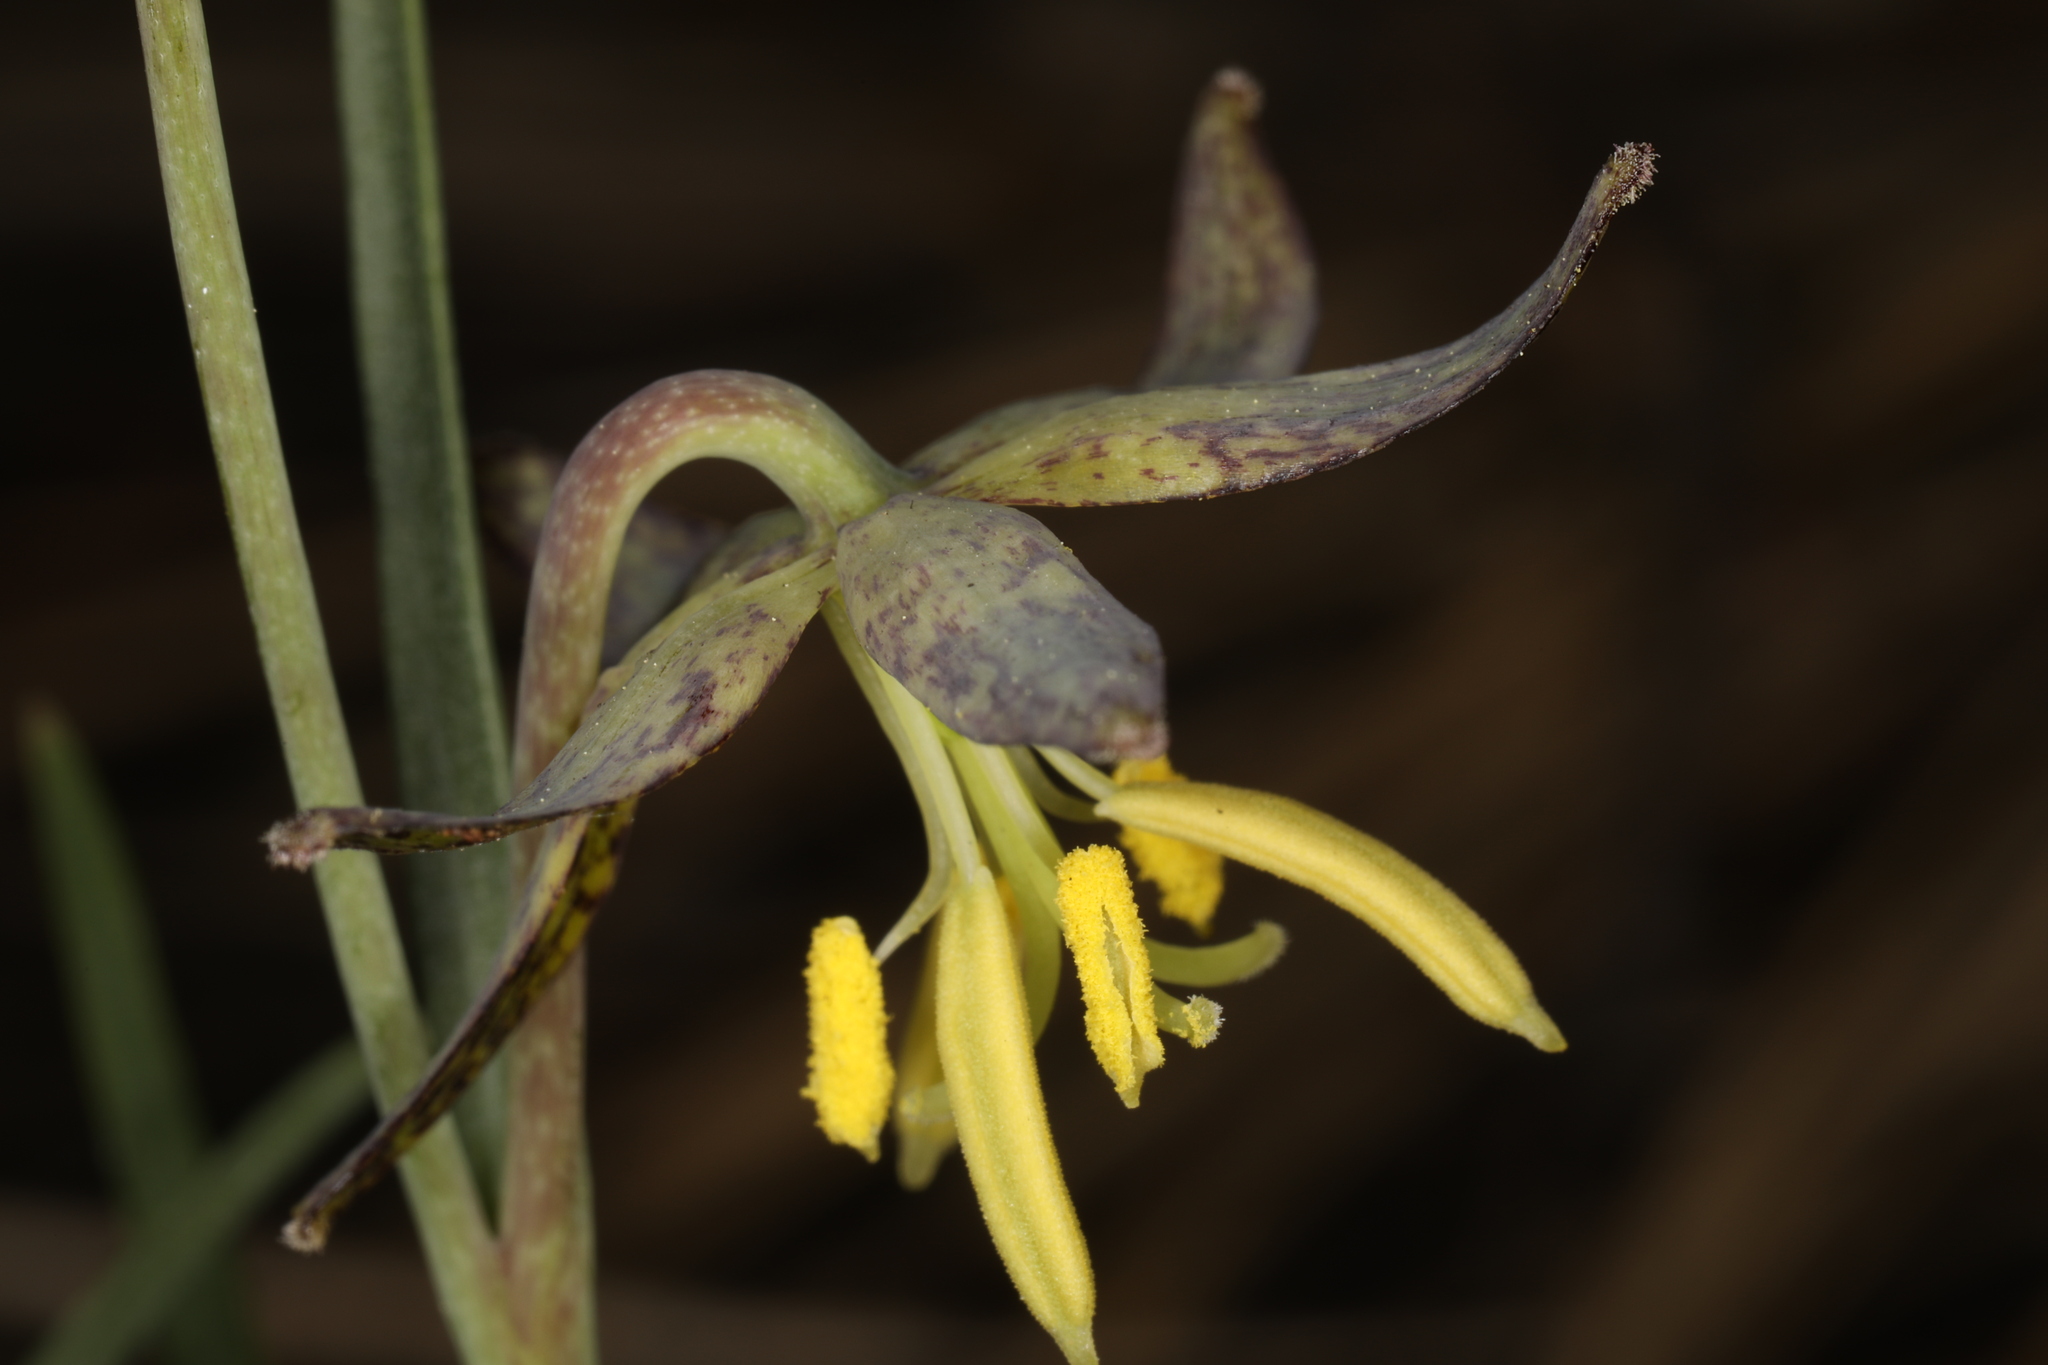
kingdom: Plantae
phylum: Tracheophyta
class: Liliopsida
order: Liliales
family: Liliaceae
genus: Fritillaria
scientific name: Fritillaria atropurpurea
